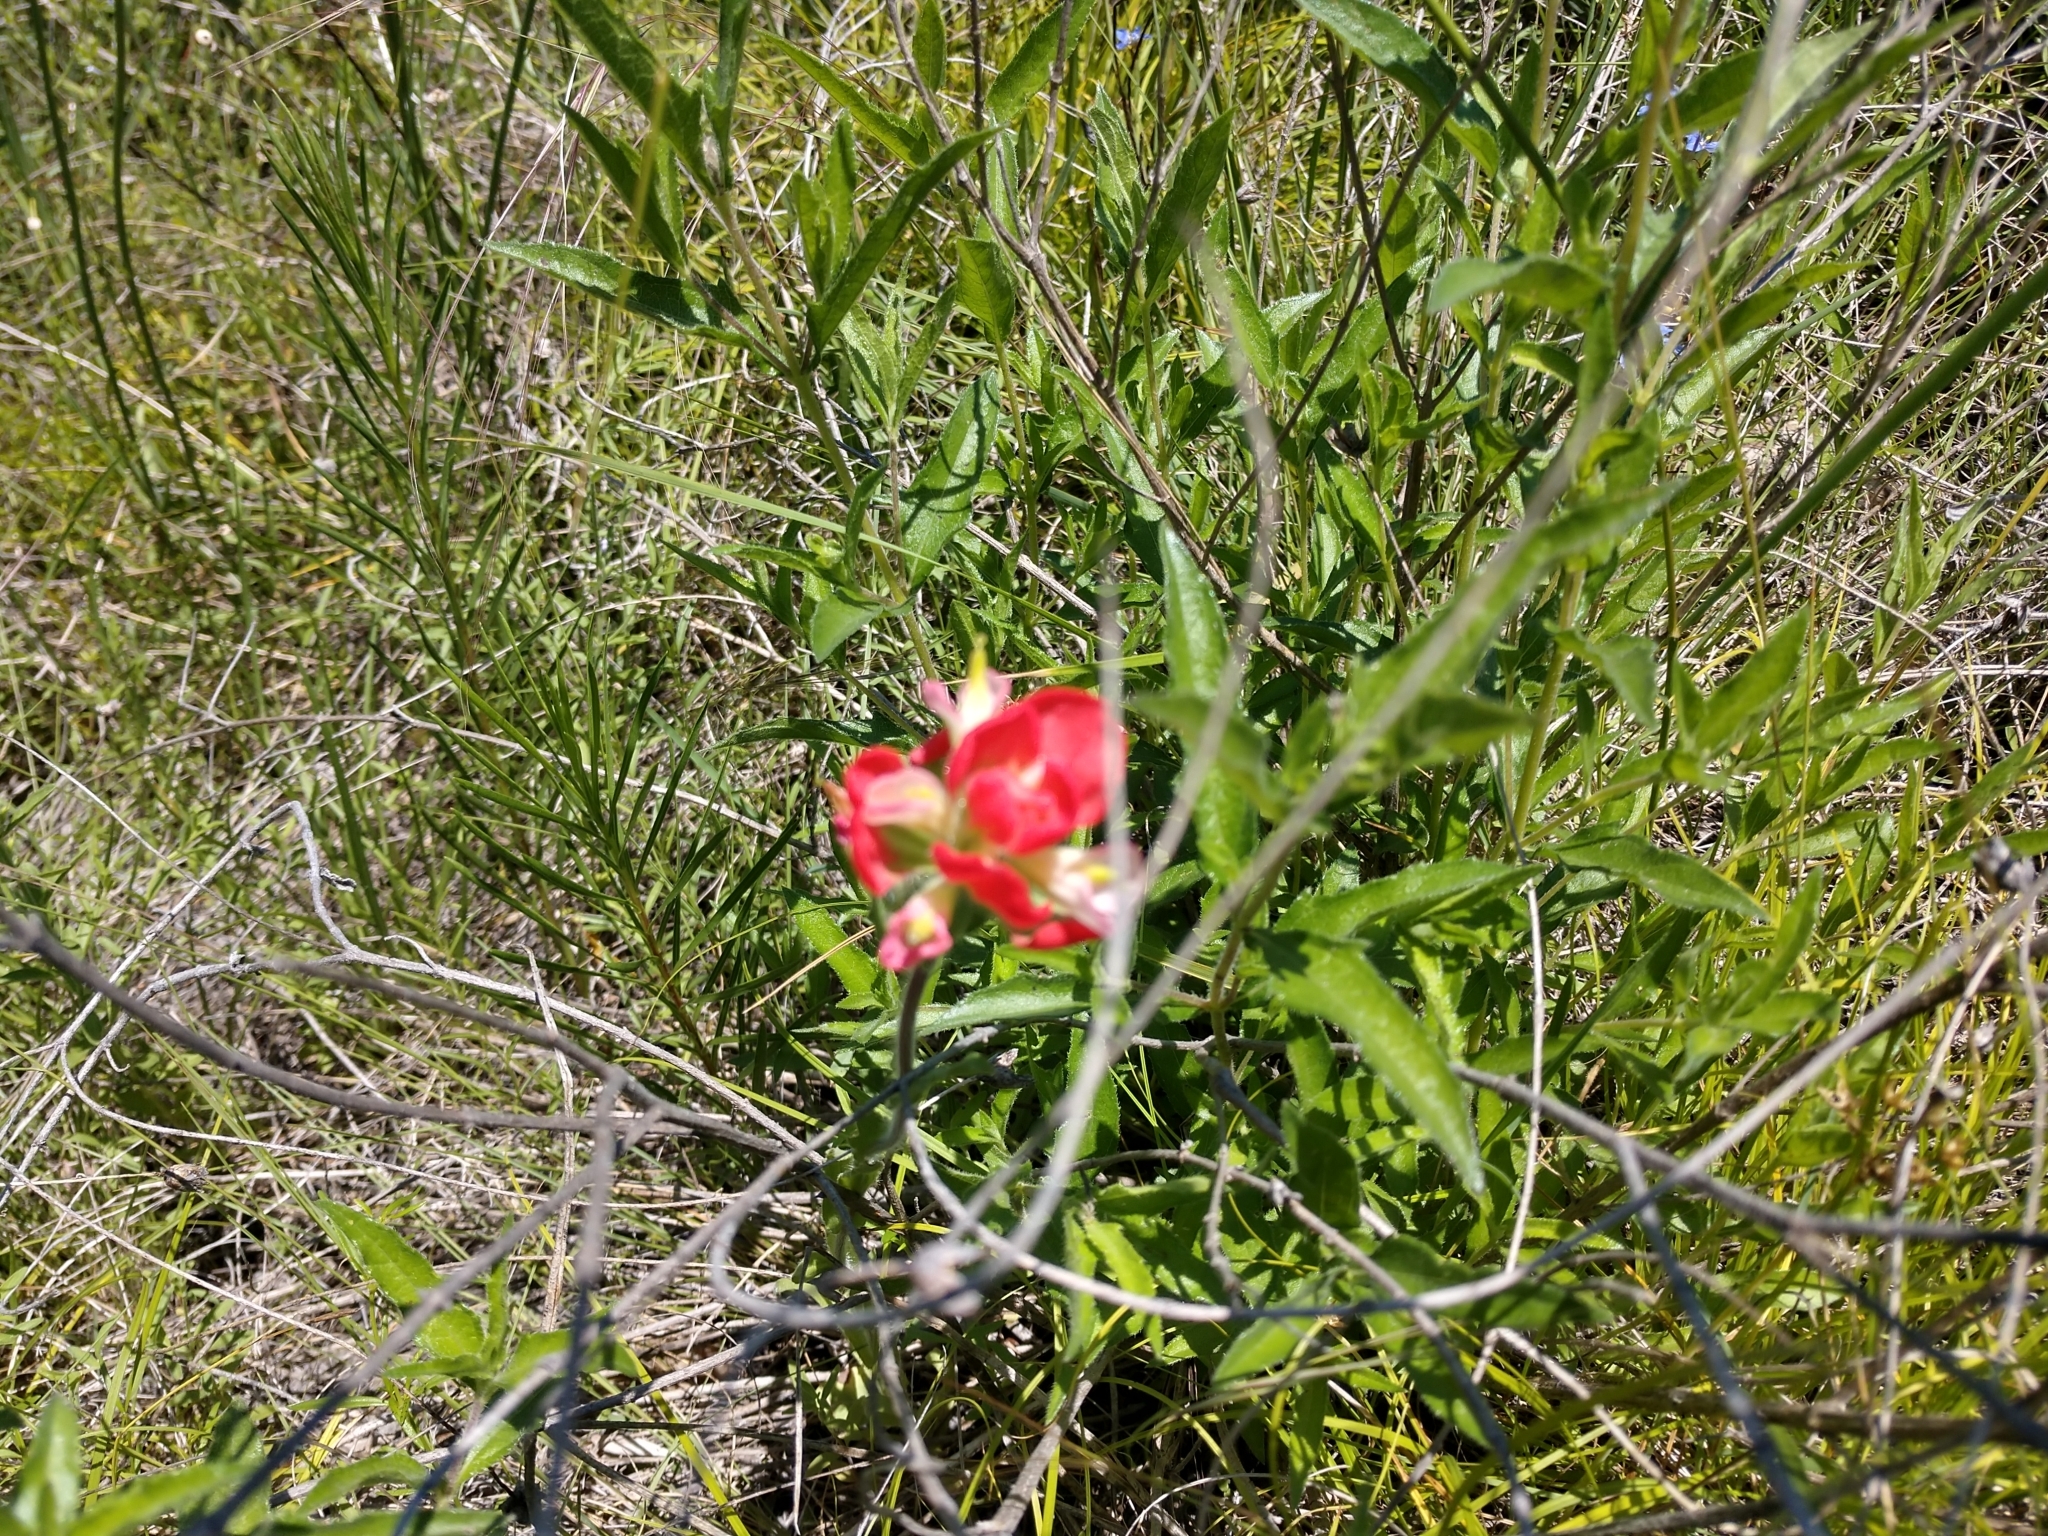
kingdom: Plantae
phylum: Tracheophyta
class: Magnoliopsida
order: Lamiales
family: Orobanchaceae
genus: Castilleja
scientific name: Castilleja indivisa
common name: Texas paintbrush
